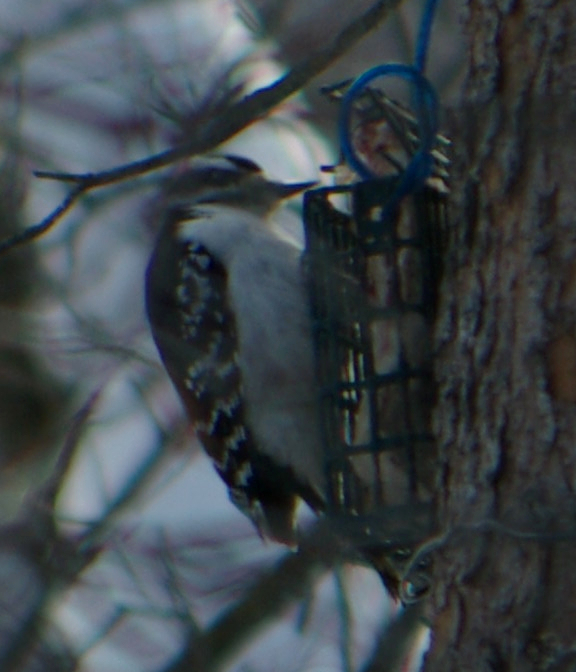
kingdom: Animalia
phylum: Chordata
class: Aves
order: Piciformes
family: Picidae
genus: Leuconotopicus
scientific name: Leuconotopicus villosus
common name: Hairy woodpecker
